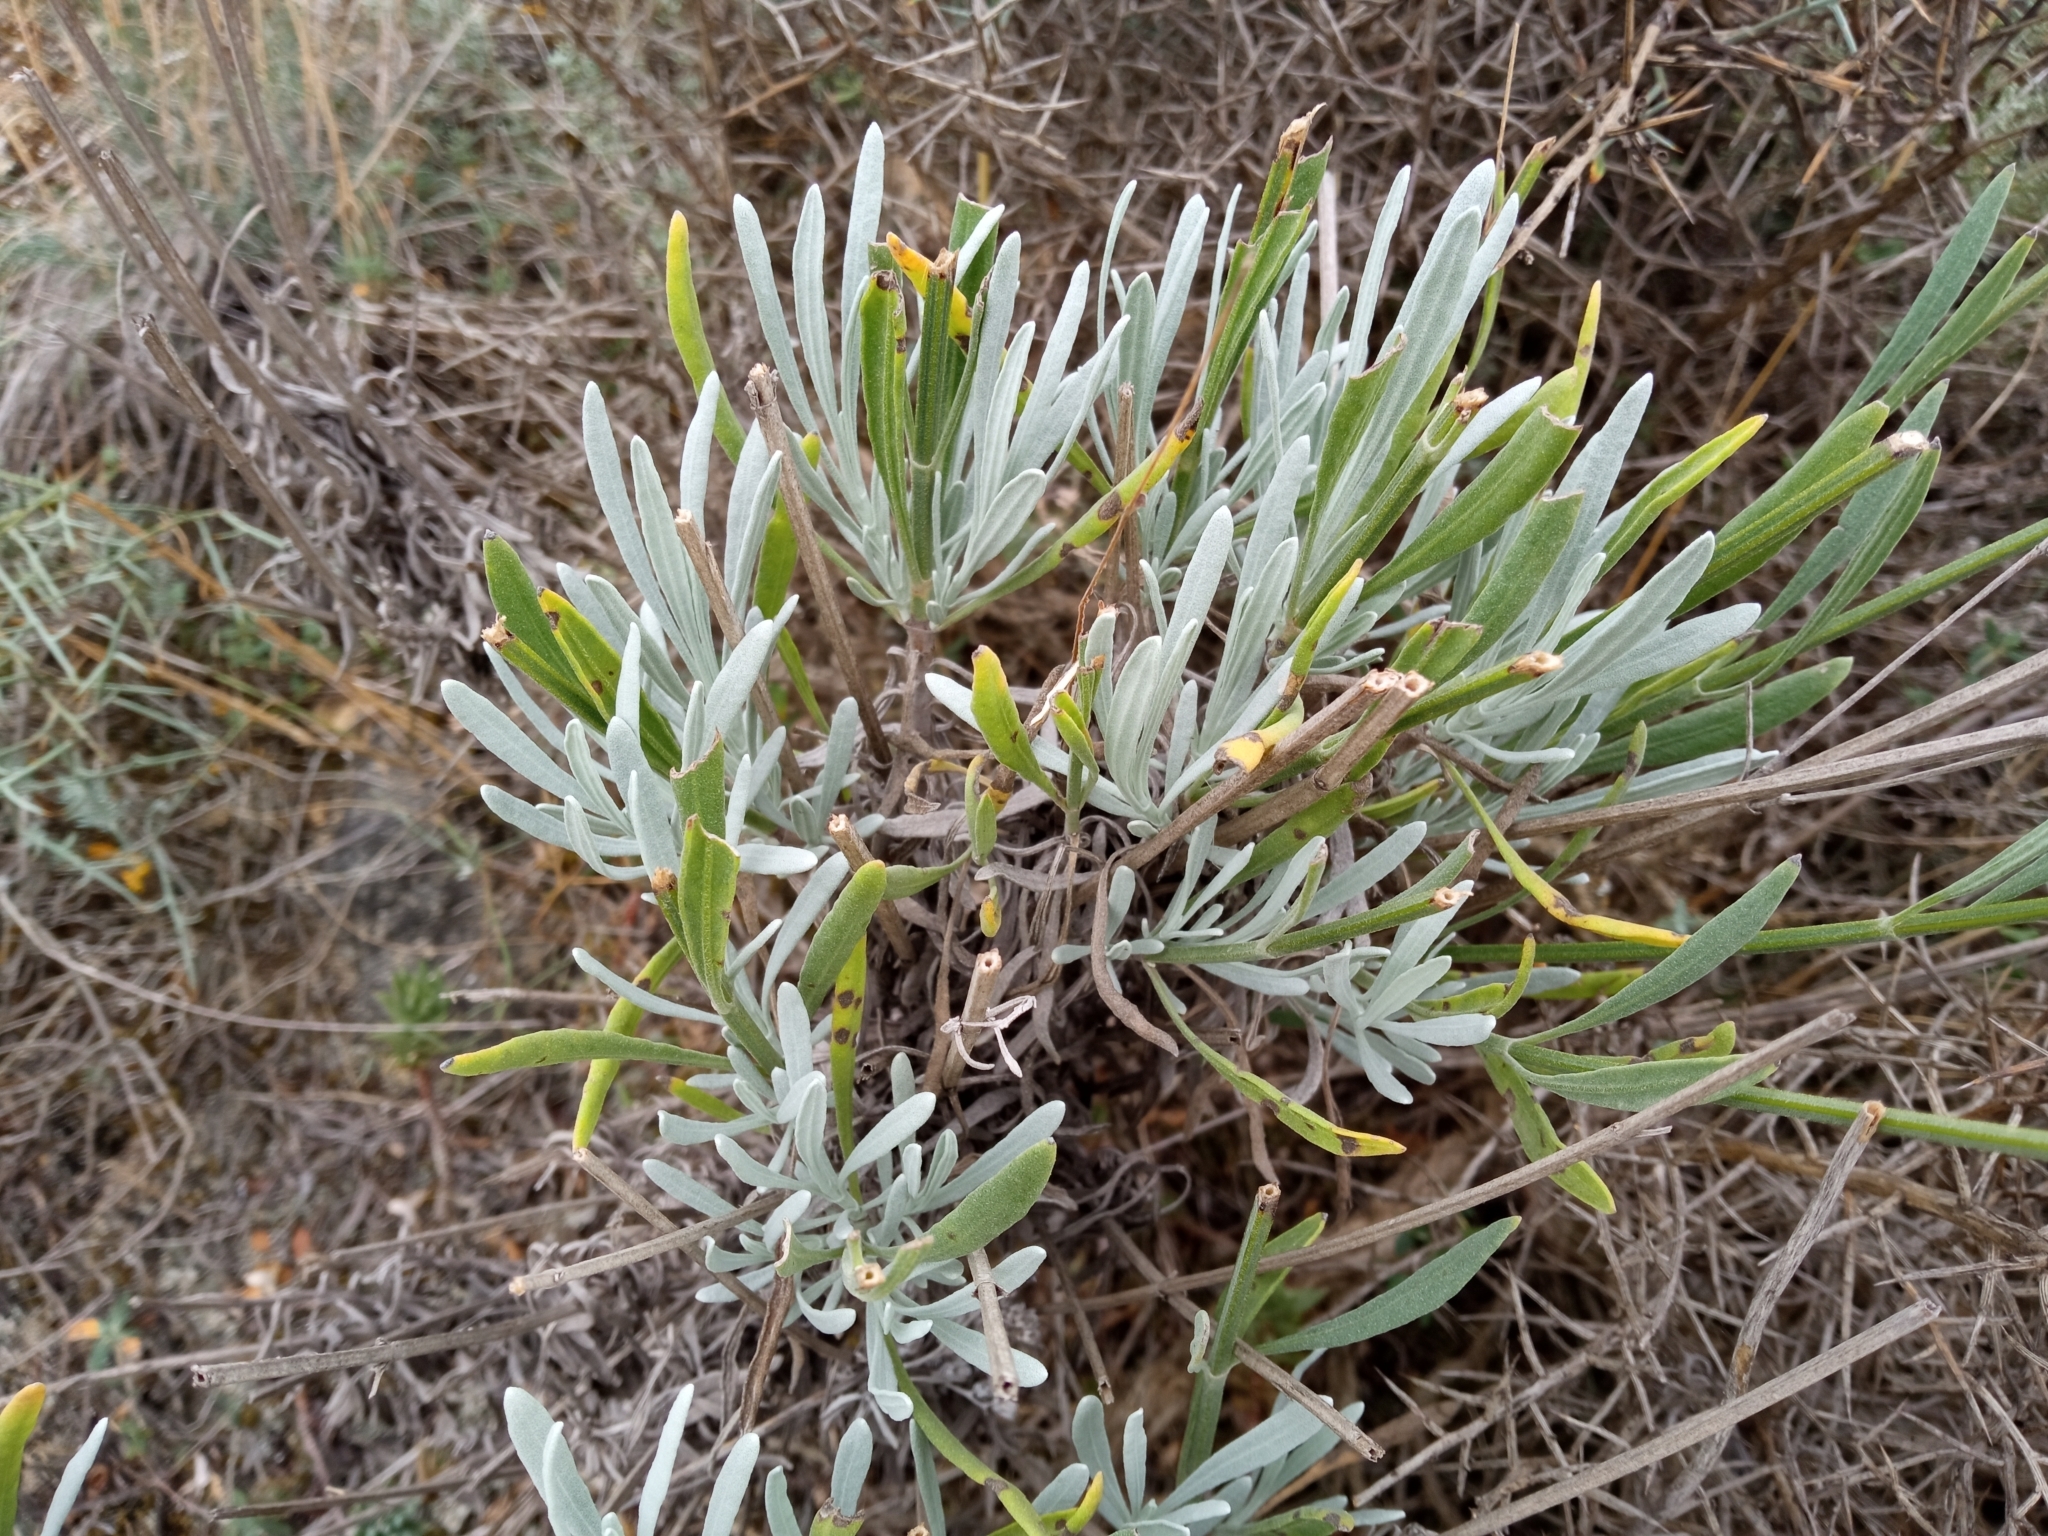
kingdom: Plantae
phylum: Tracheophyta
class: Magnoliopsida
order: Lamiales
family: Lamiaceae
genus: Lavandula
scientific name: Lavandula latifolia
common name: Spike lavendar
